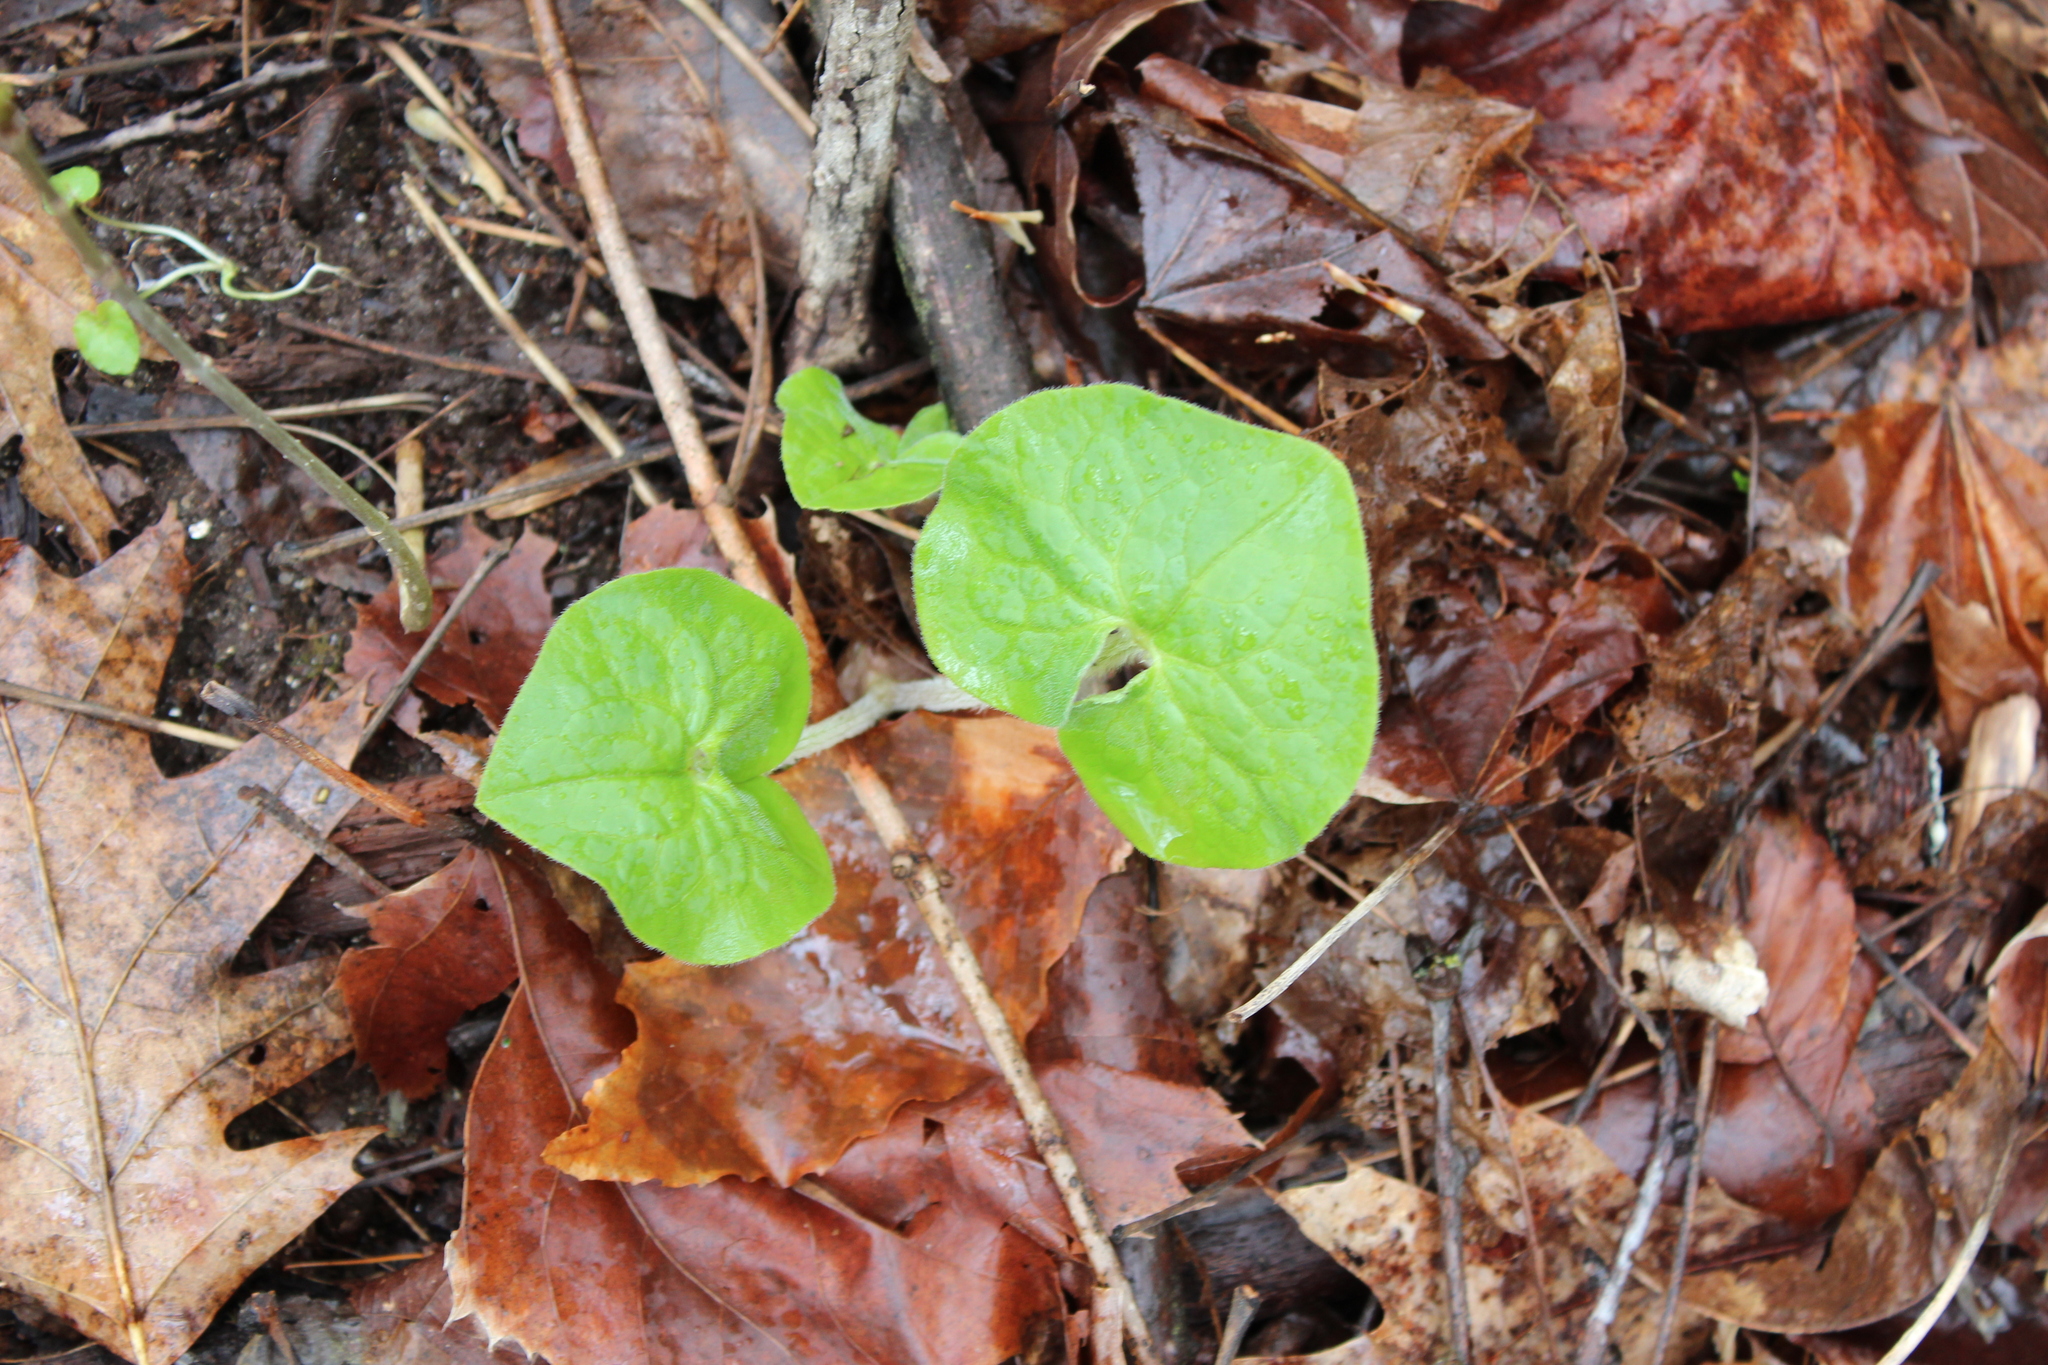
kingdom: Plantae
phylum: Tracheophyta
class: Magnoliopsida
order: Piperales
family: Aristolochiaceae
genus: Asarum
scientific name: Asarum canadense
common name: Wild ginger
